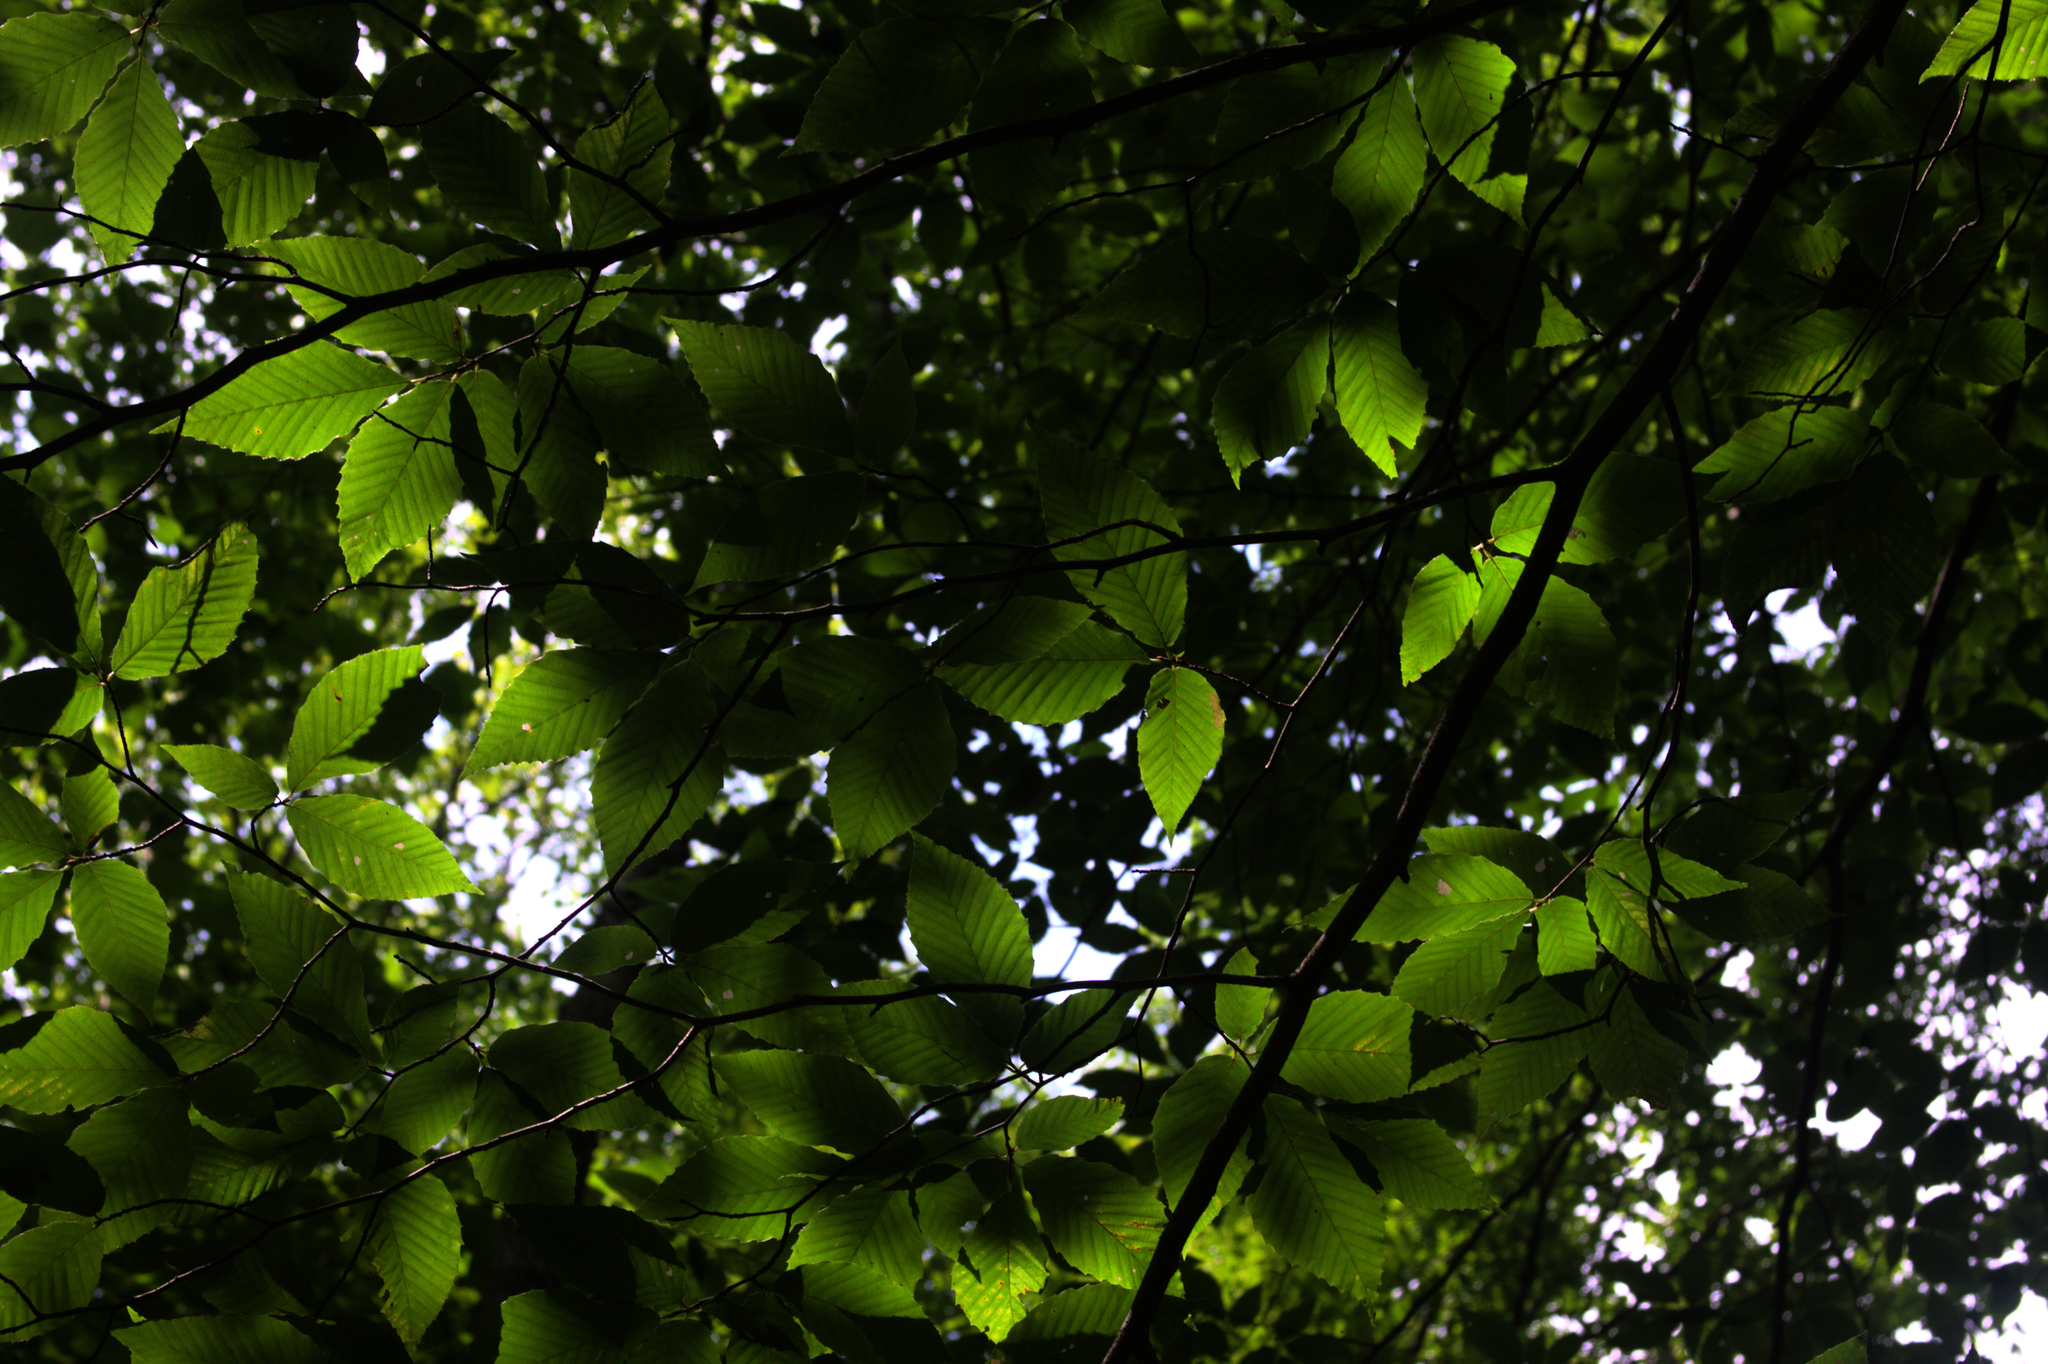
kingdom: Plantae
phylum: Tracheophyta
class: Magnoliopsida
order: Fagales
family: Fagaceae
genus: Fagus
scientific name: Fagus grandifolia
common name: American beech
